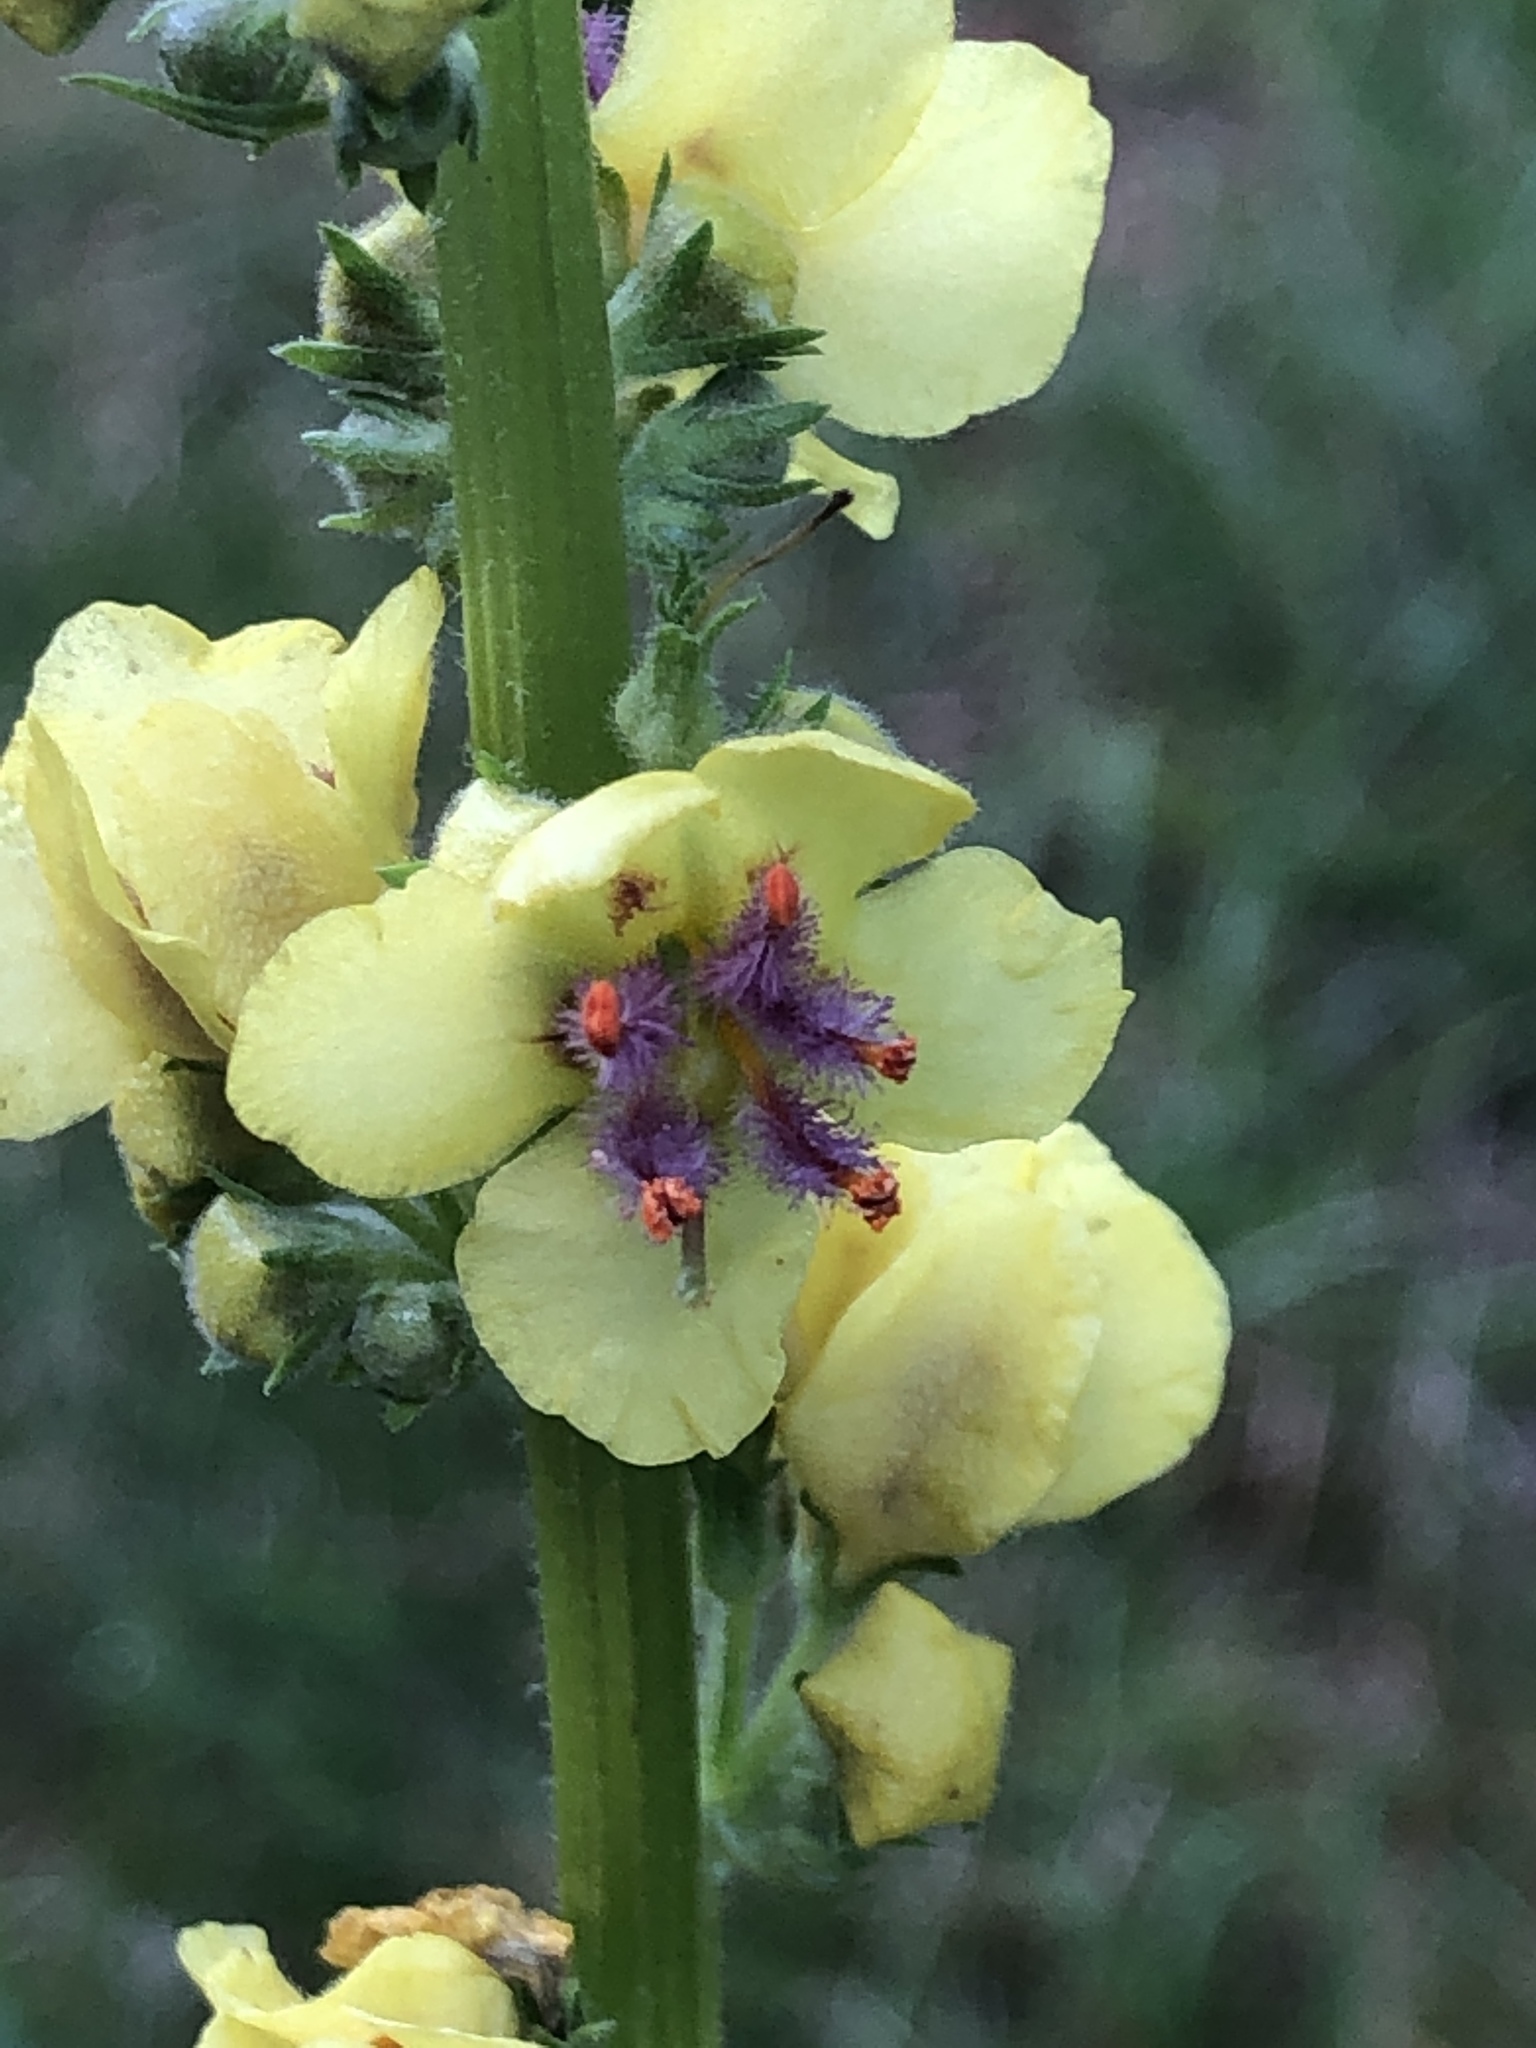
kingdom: Plantae
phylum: Tracheophyta
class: Magnoliopsida
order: Lamiales
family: Scrophulariaceae
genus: Verbascum
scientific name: Verbascum nigrum
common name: Dark mullein
